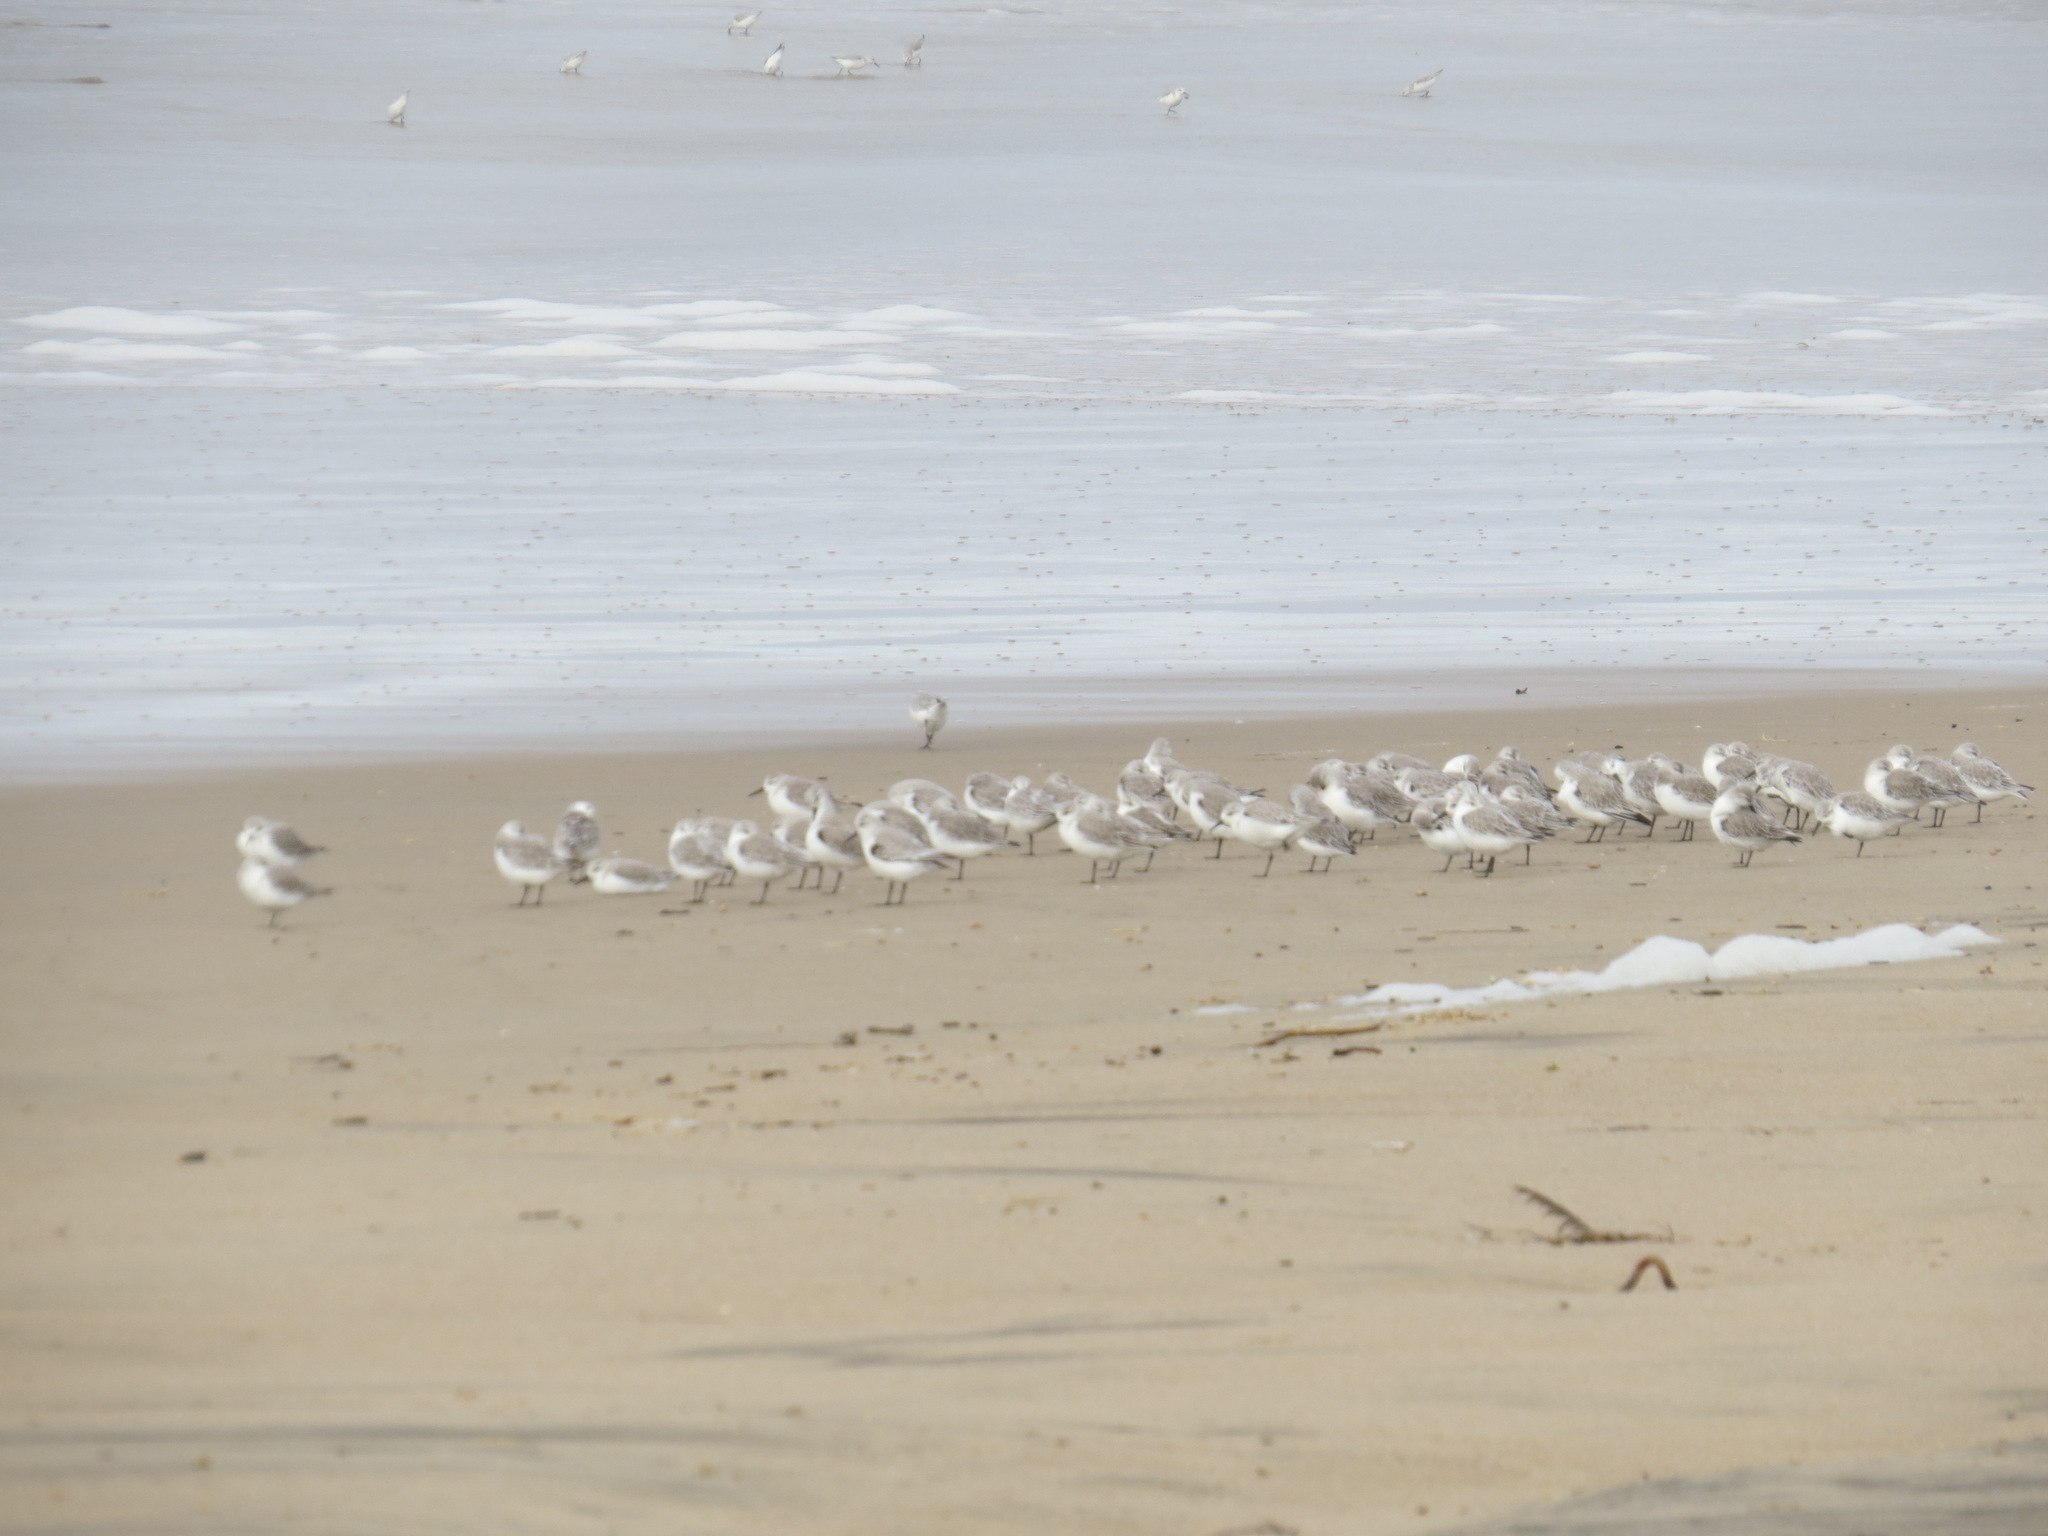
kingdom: Animalia
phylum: Chordata
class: Aves
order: Charadriiformes
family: Scolopacidae
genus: Calidris
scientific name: Calidris alba
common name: Sanderling
